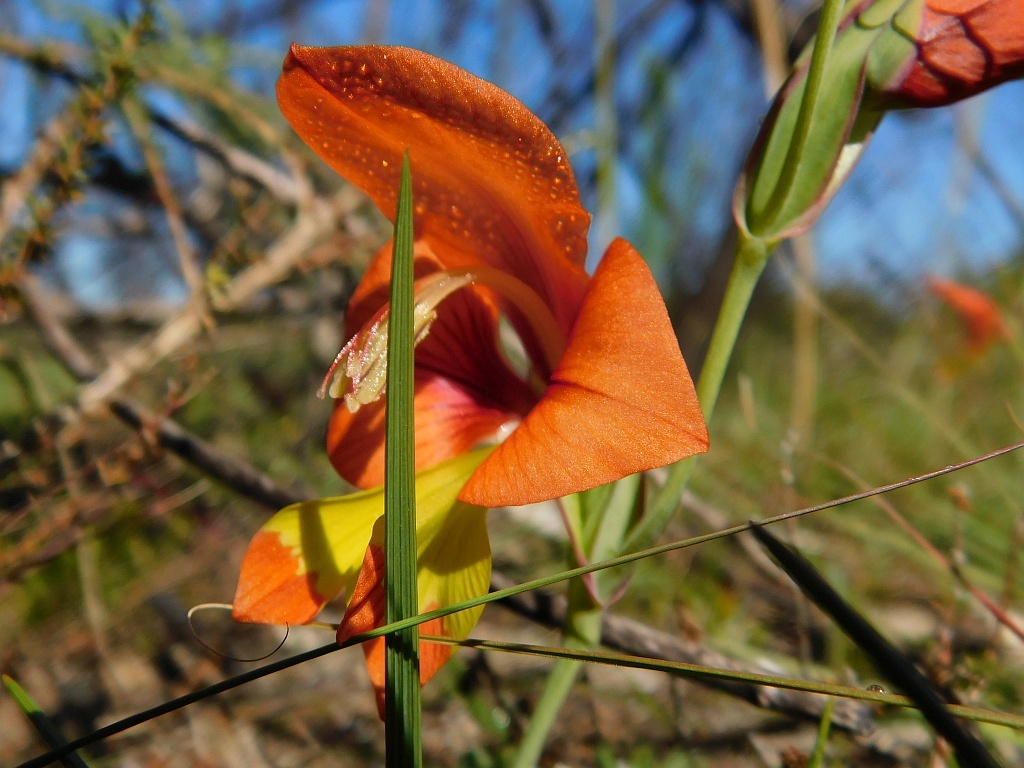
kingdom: Plantae
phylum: Tracheophyta
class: Liliopsida
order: Asparagales
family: Iridaceae
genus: Gladiolus
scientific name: Gladiolus alatus
